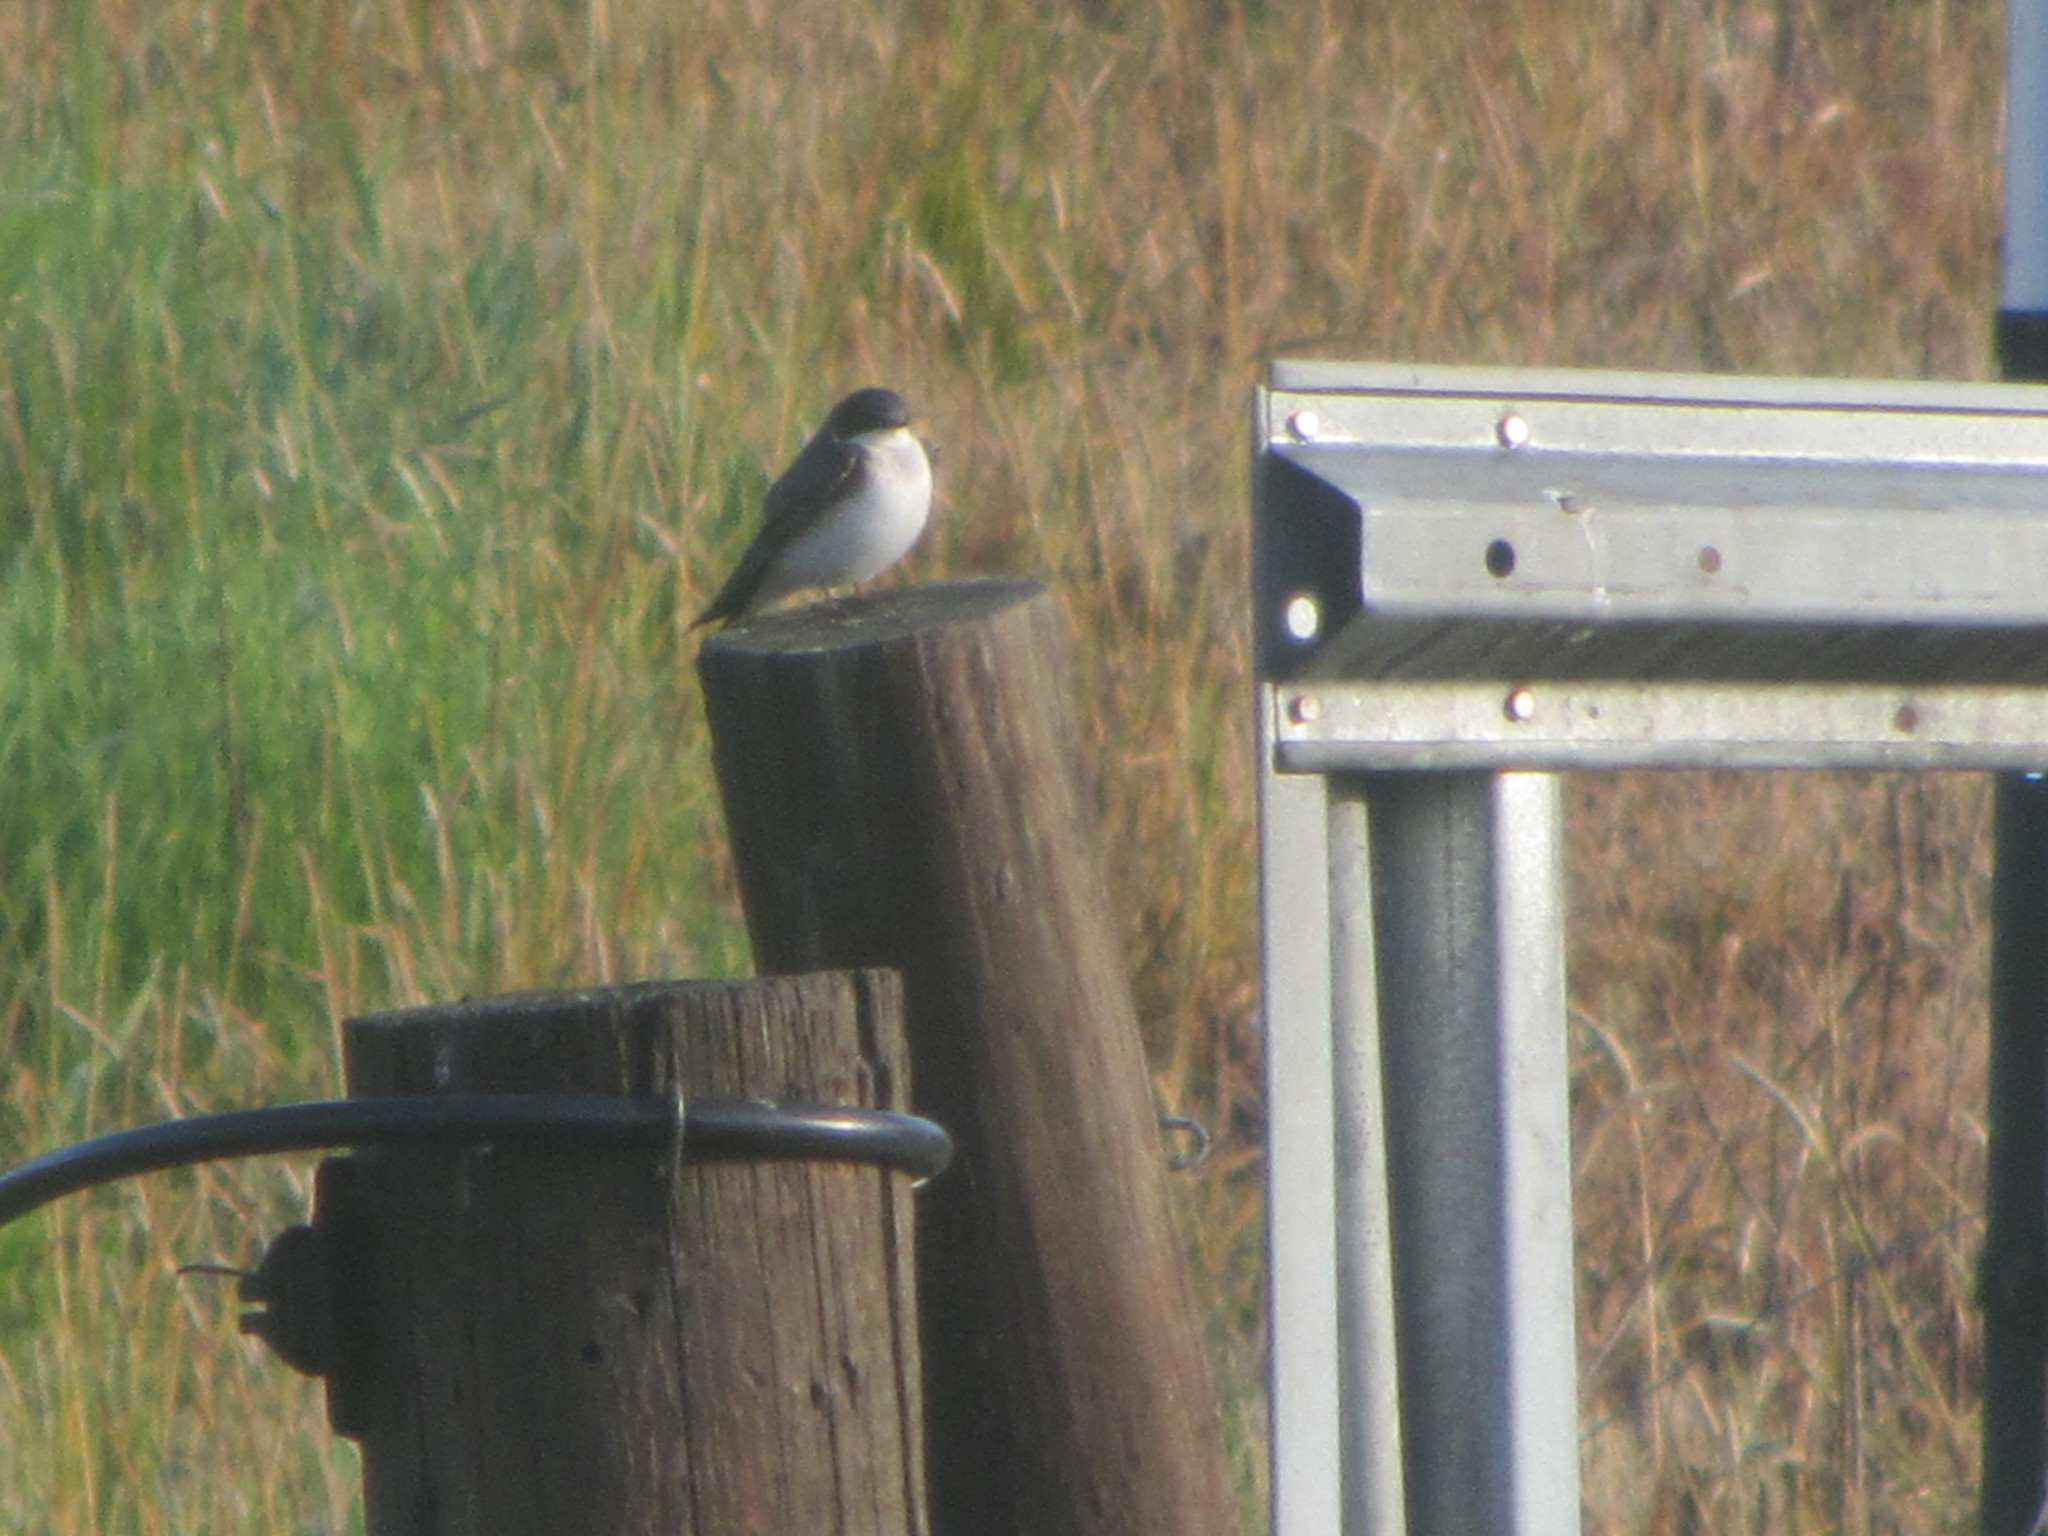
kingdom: Animalia
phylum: Chordata
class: Aves
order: Passeriformes
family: Hirundinidae
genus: Tachycineta
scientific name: Tachycineta bicolor
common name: Tree swallow
